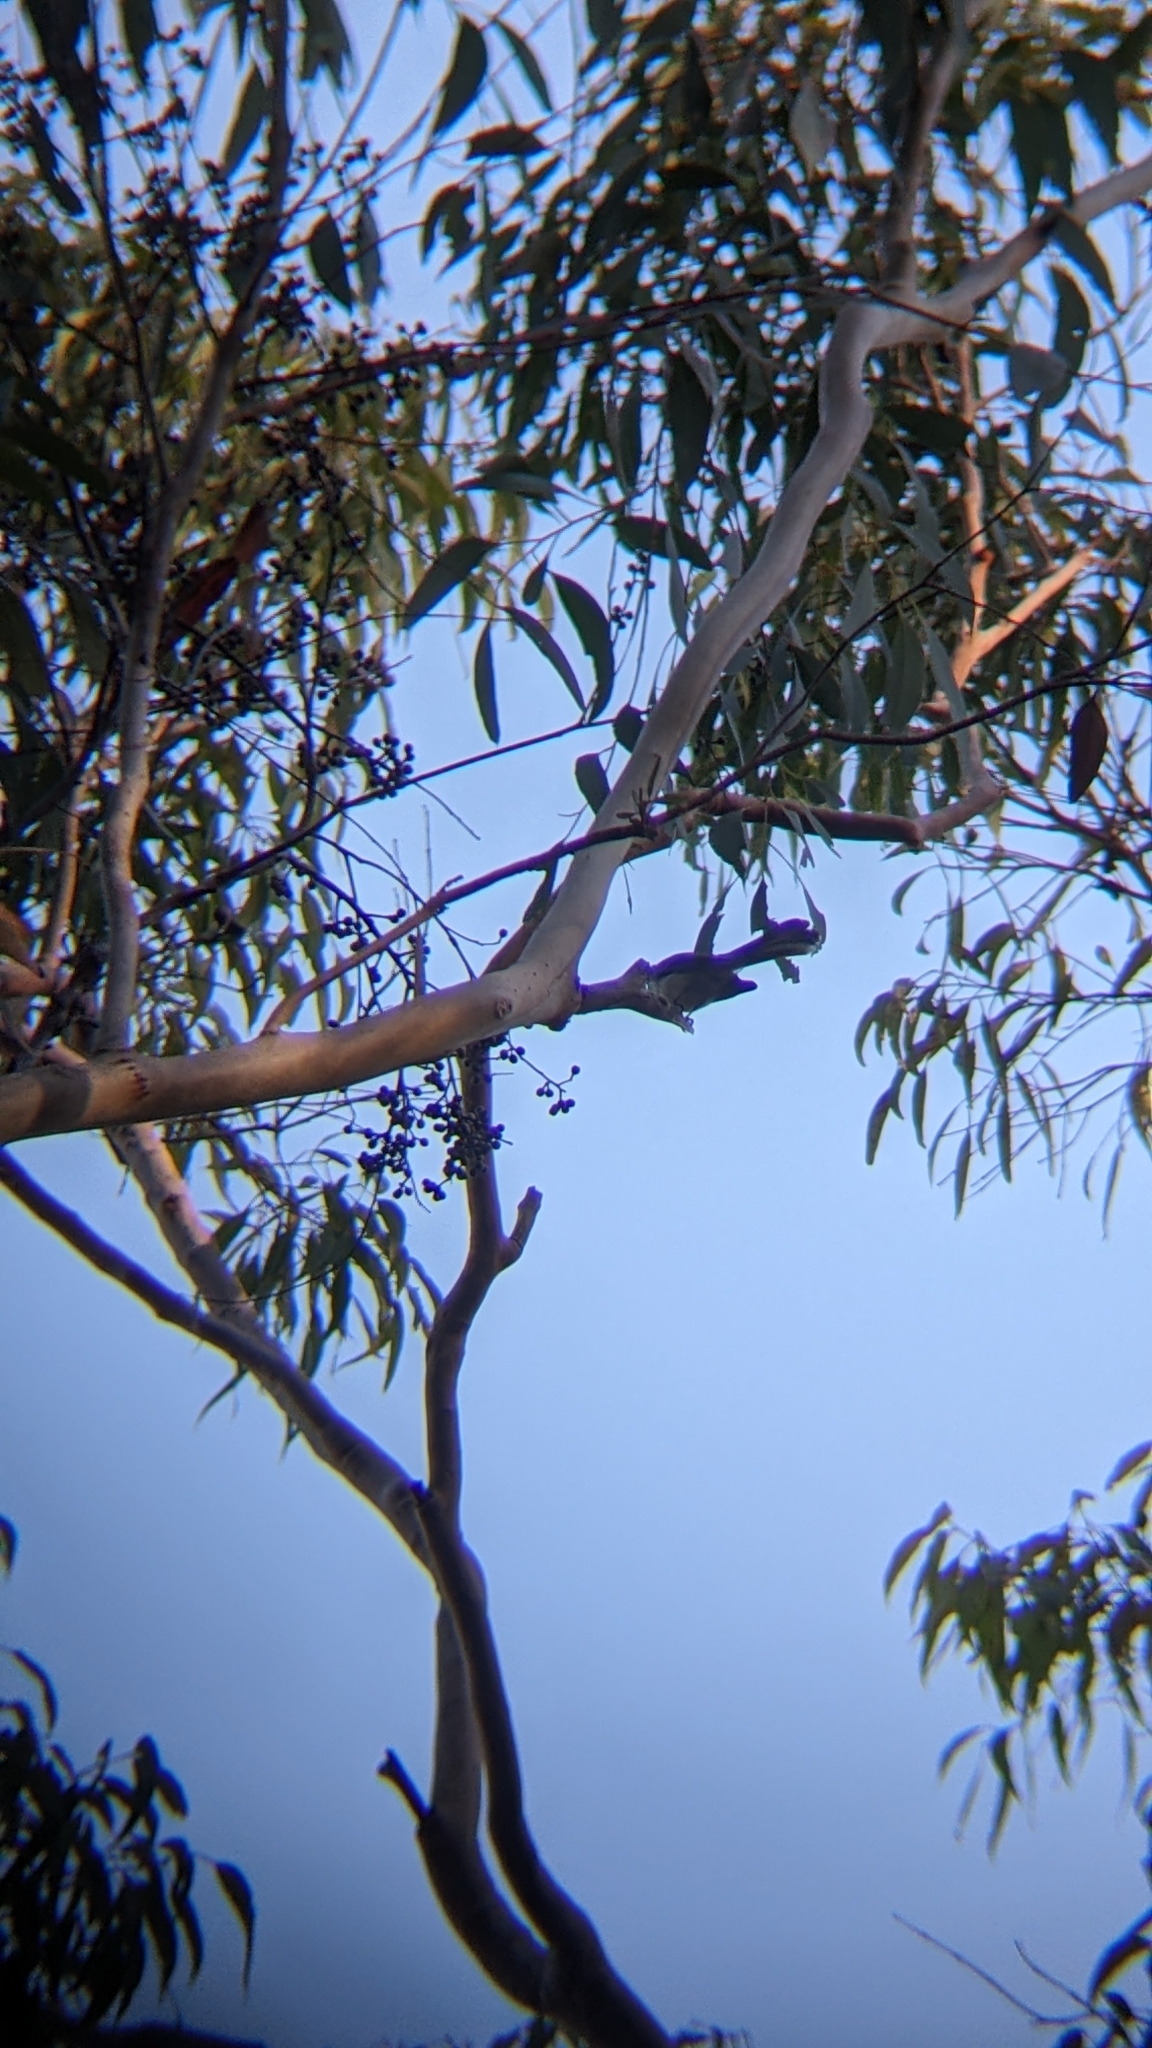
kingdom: Animalia
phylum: Chordata
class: Aves
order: Passeriformes
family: Rhipiduridae
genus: Rhipidura
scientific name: Rhipidura albiscapa
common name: Grey fantail
